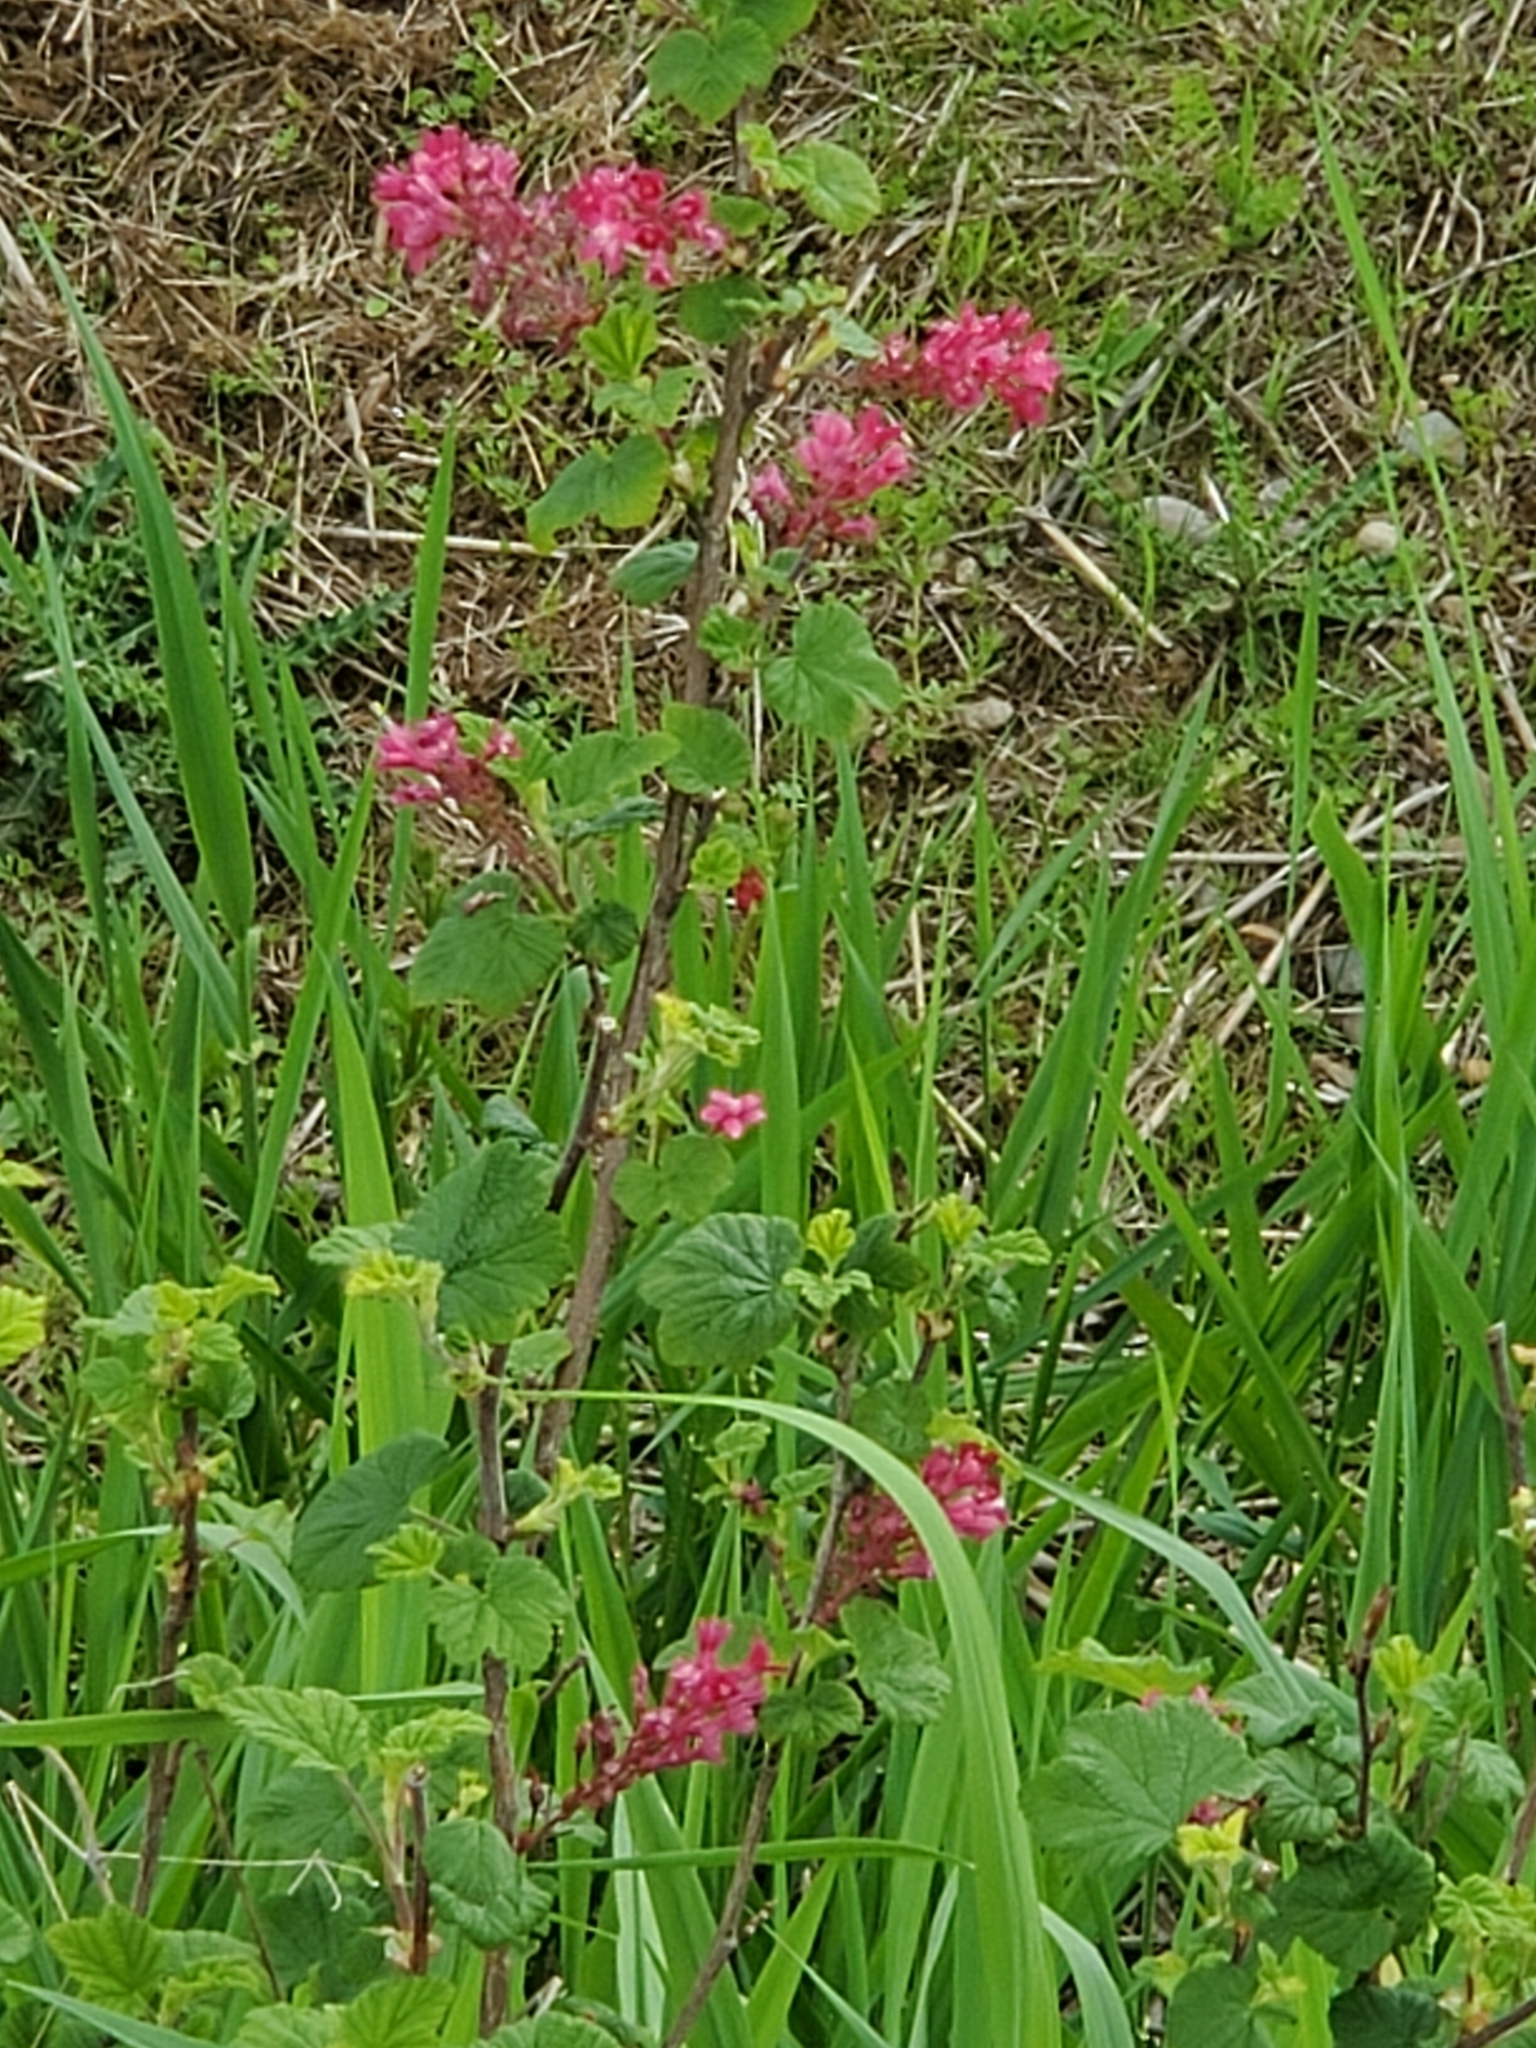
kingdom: Plantae
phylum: Tracheophyta
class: Magnoliopsida
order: Saxifragales
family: Grossulariaceae
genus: Ribes
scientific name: Ribes sanguineum
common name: Flowering currant
